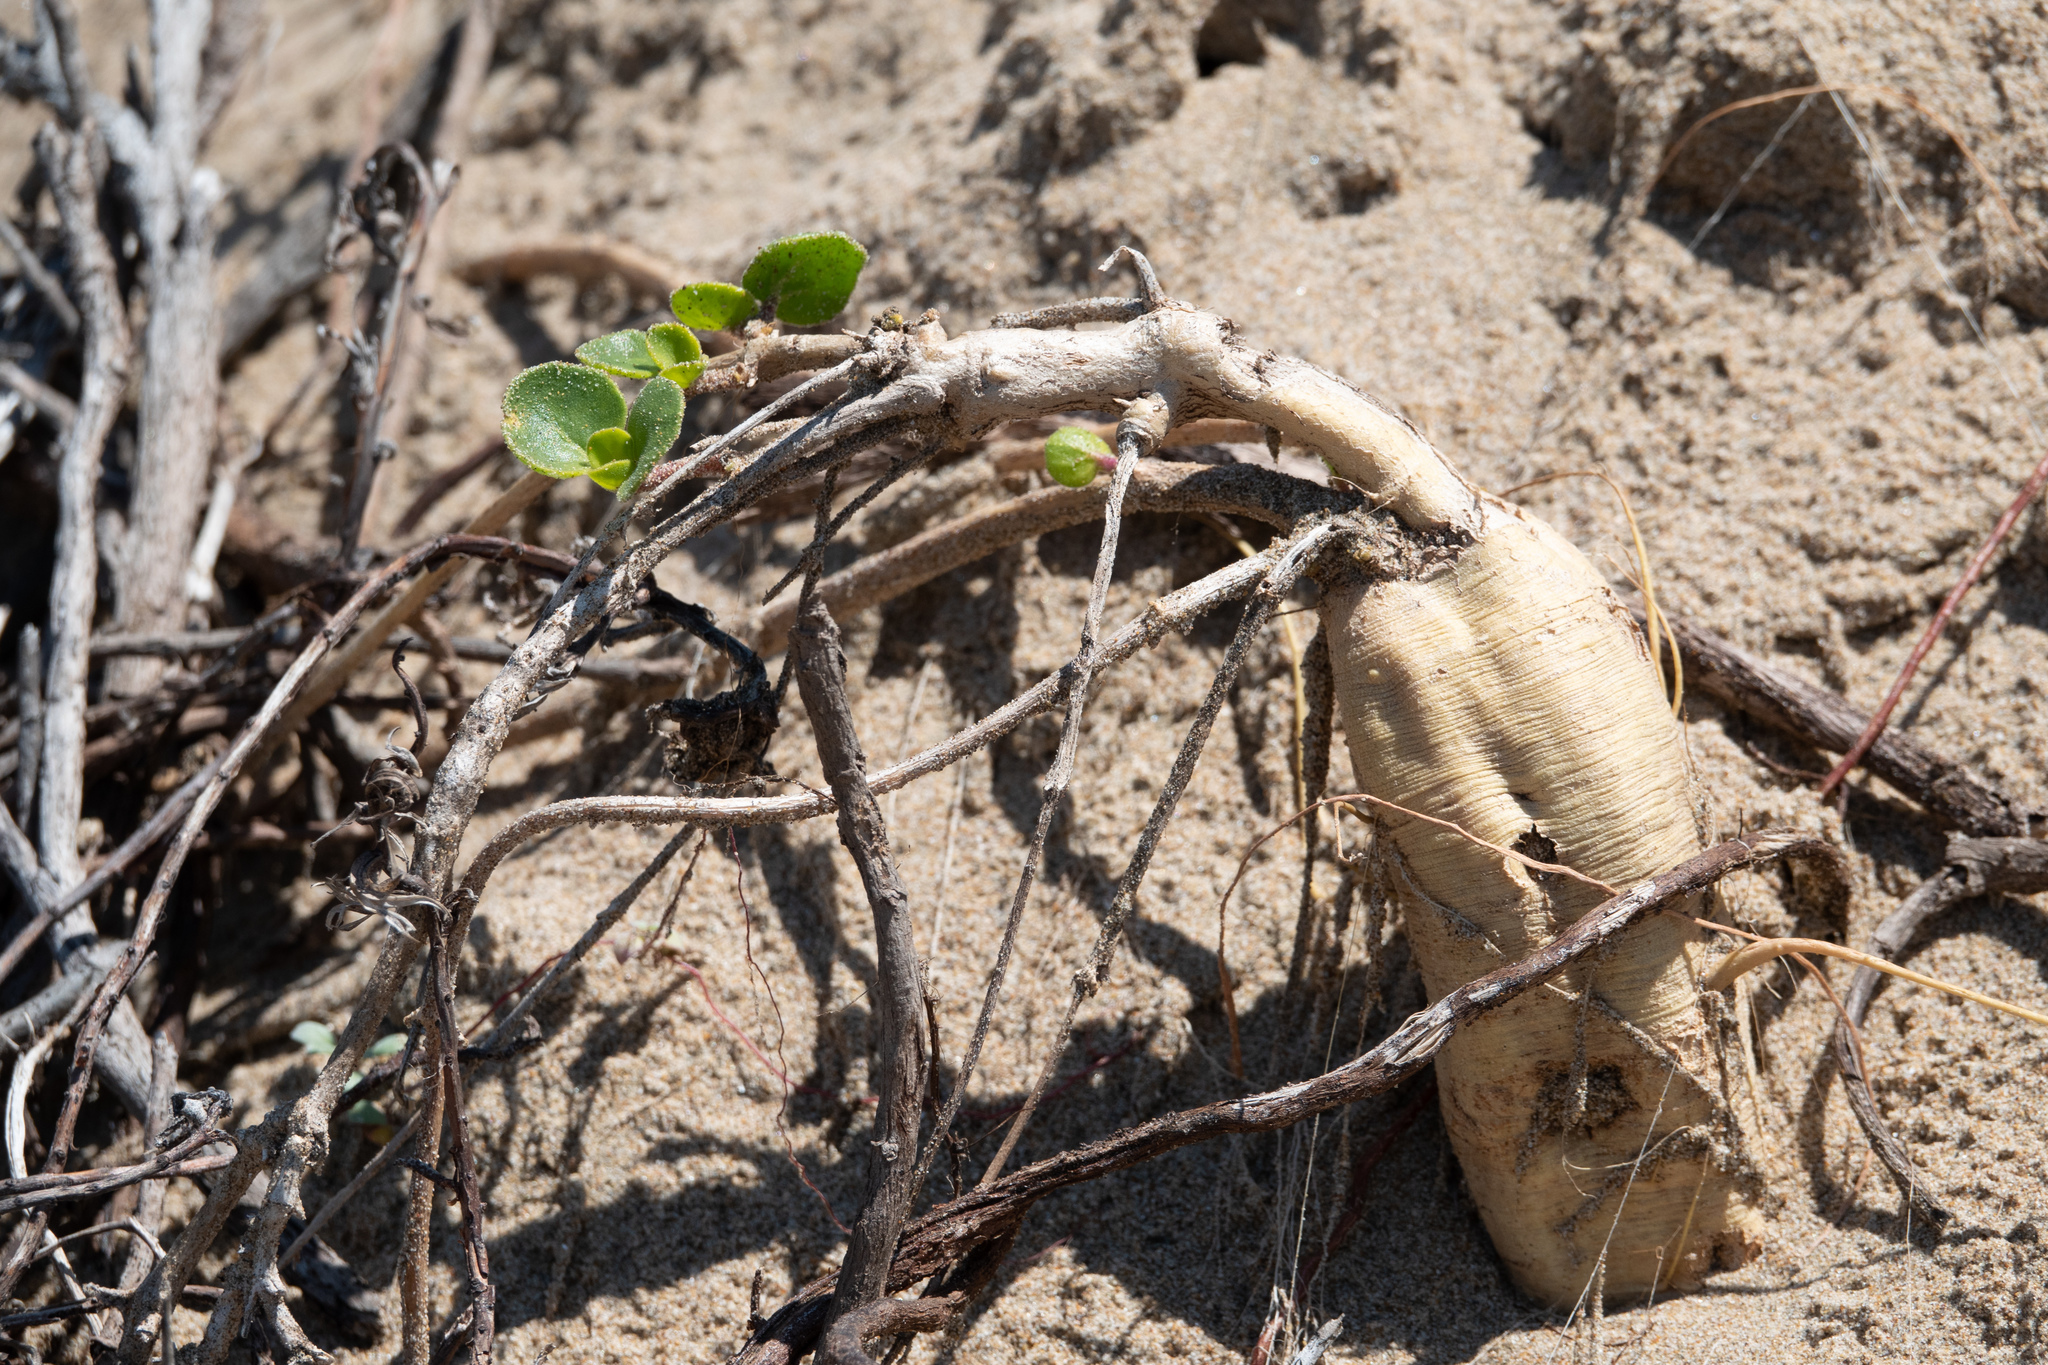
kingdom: Plantae
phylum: Tracheophyta
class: Magnoliopsida
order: Caryophyllales
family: Nyctaginaceae
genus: Abronia
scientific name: Abronia latifolia
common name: Yellow sand-verbena
